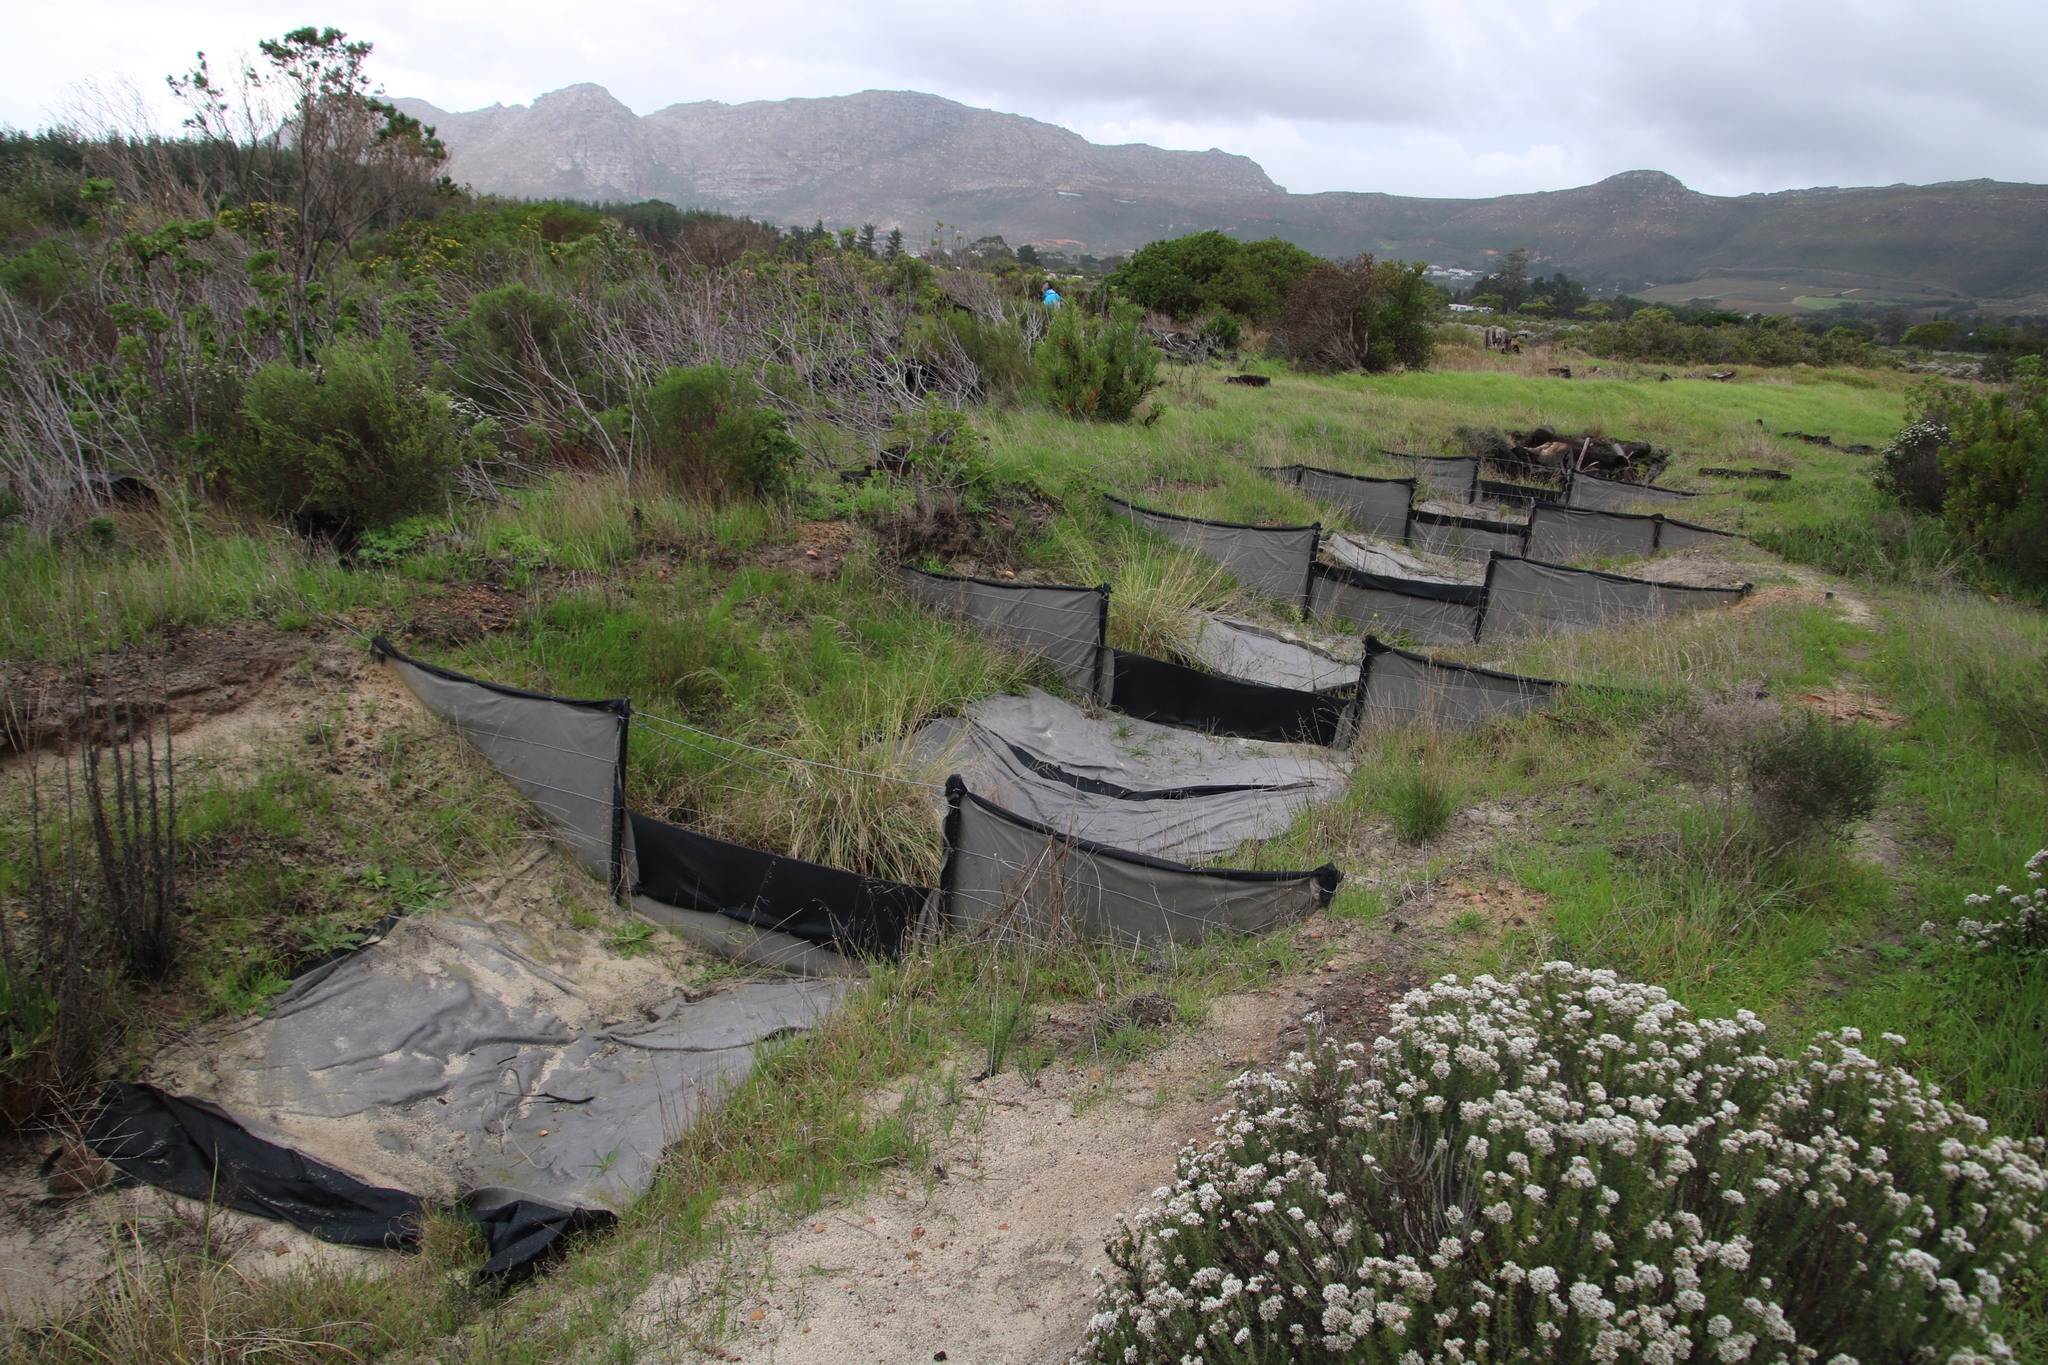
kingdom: Plantae
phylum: Tracheophyta
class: Magnoliopsida
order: Asterales
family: Asteraceae
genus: Metalasia
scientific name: Metalasia densa
